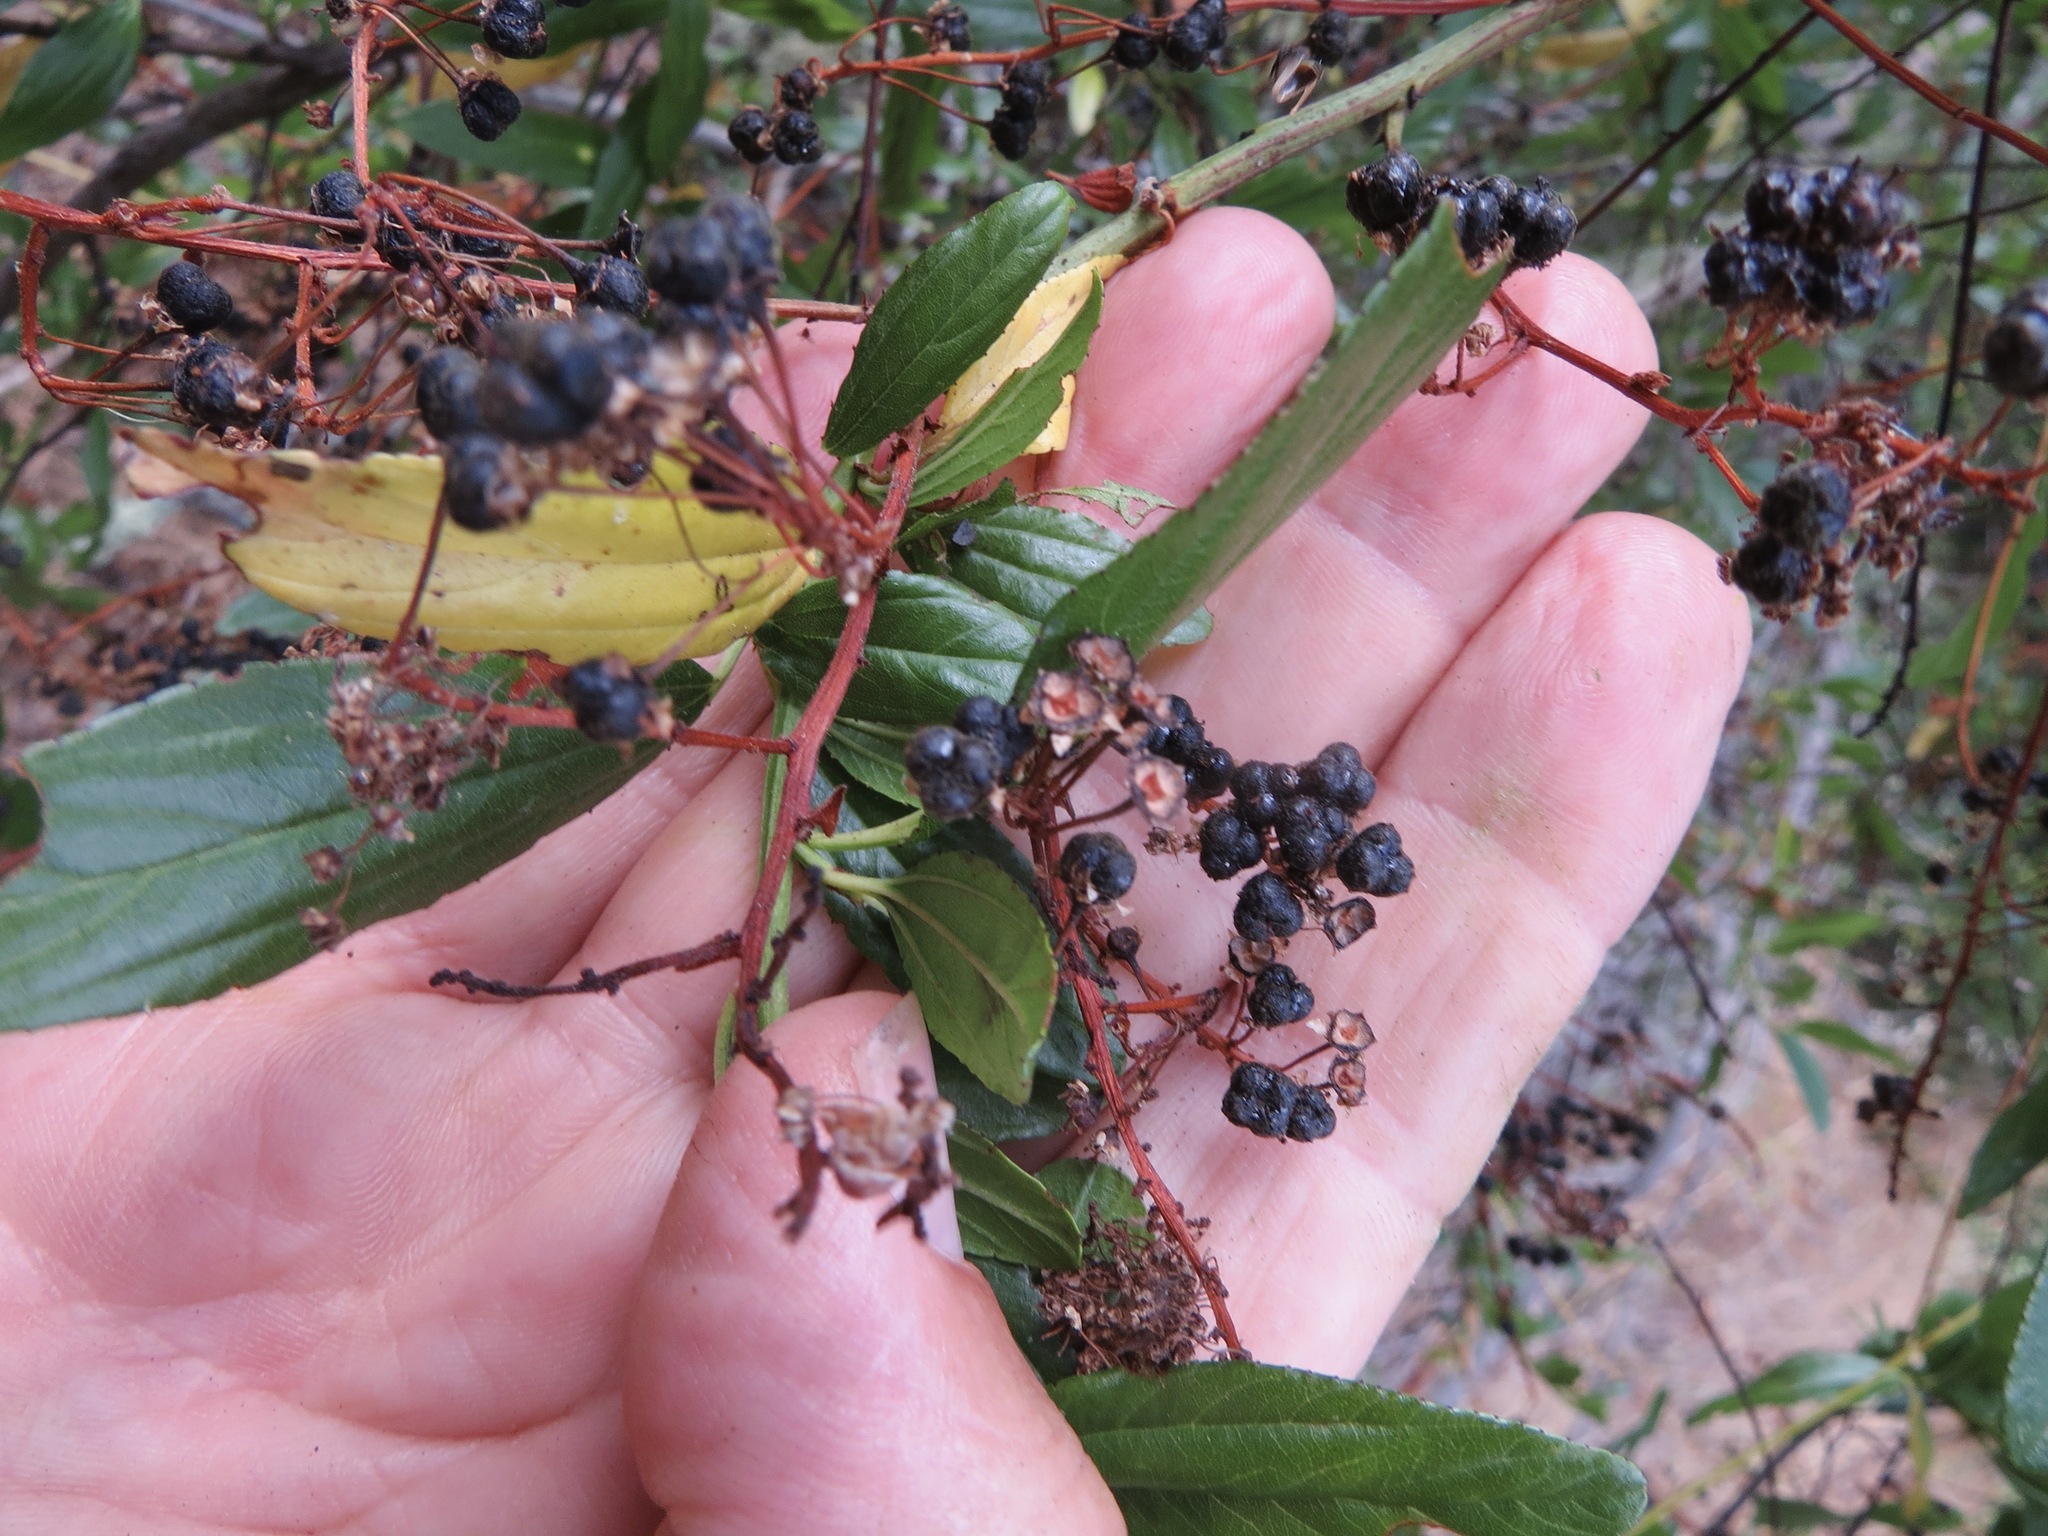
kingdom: Plantae
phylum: Tracheophyta
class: Magnoliopsida
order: Rosales
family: Rhamnaceae
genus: Ceanothus
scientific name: Ceanothus thyrsiflorus
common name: California-lilac
